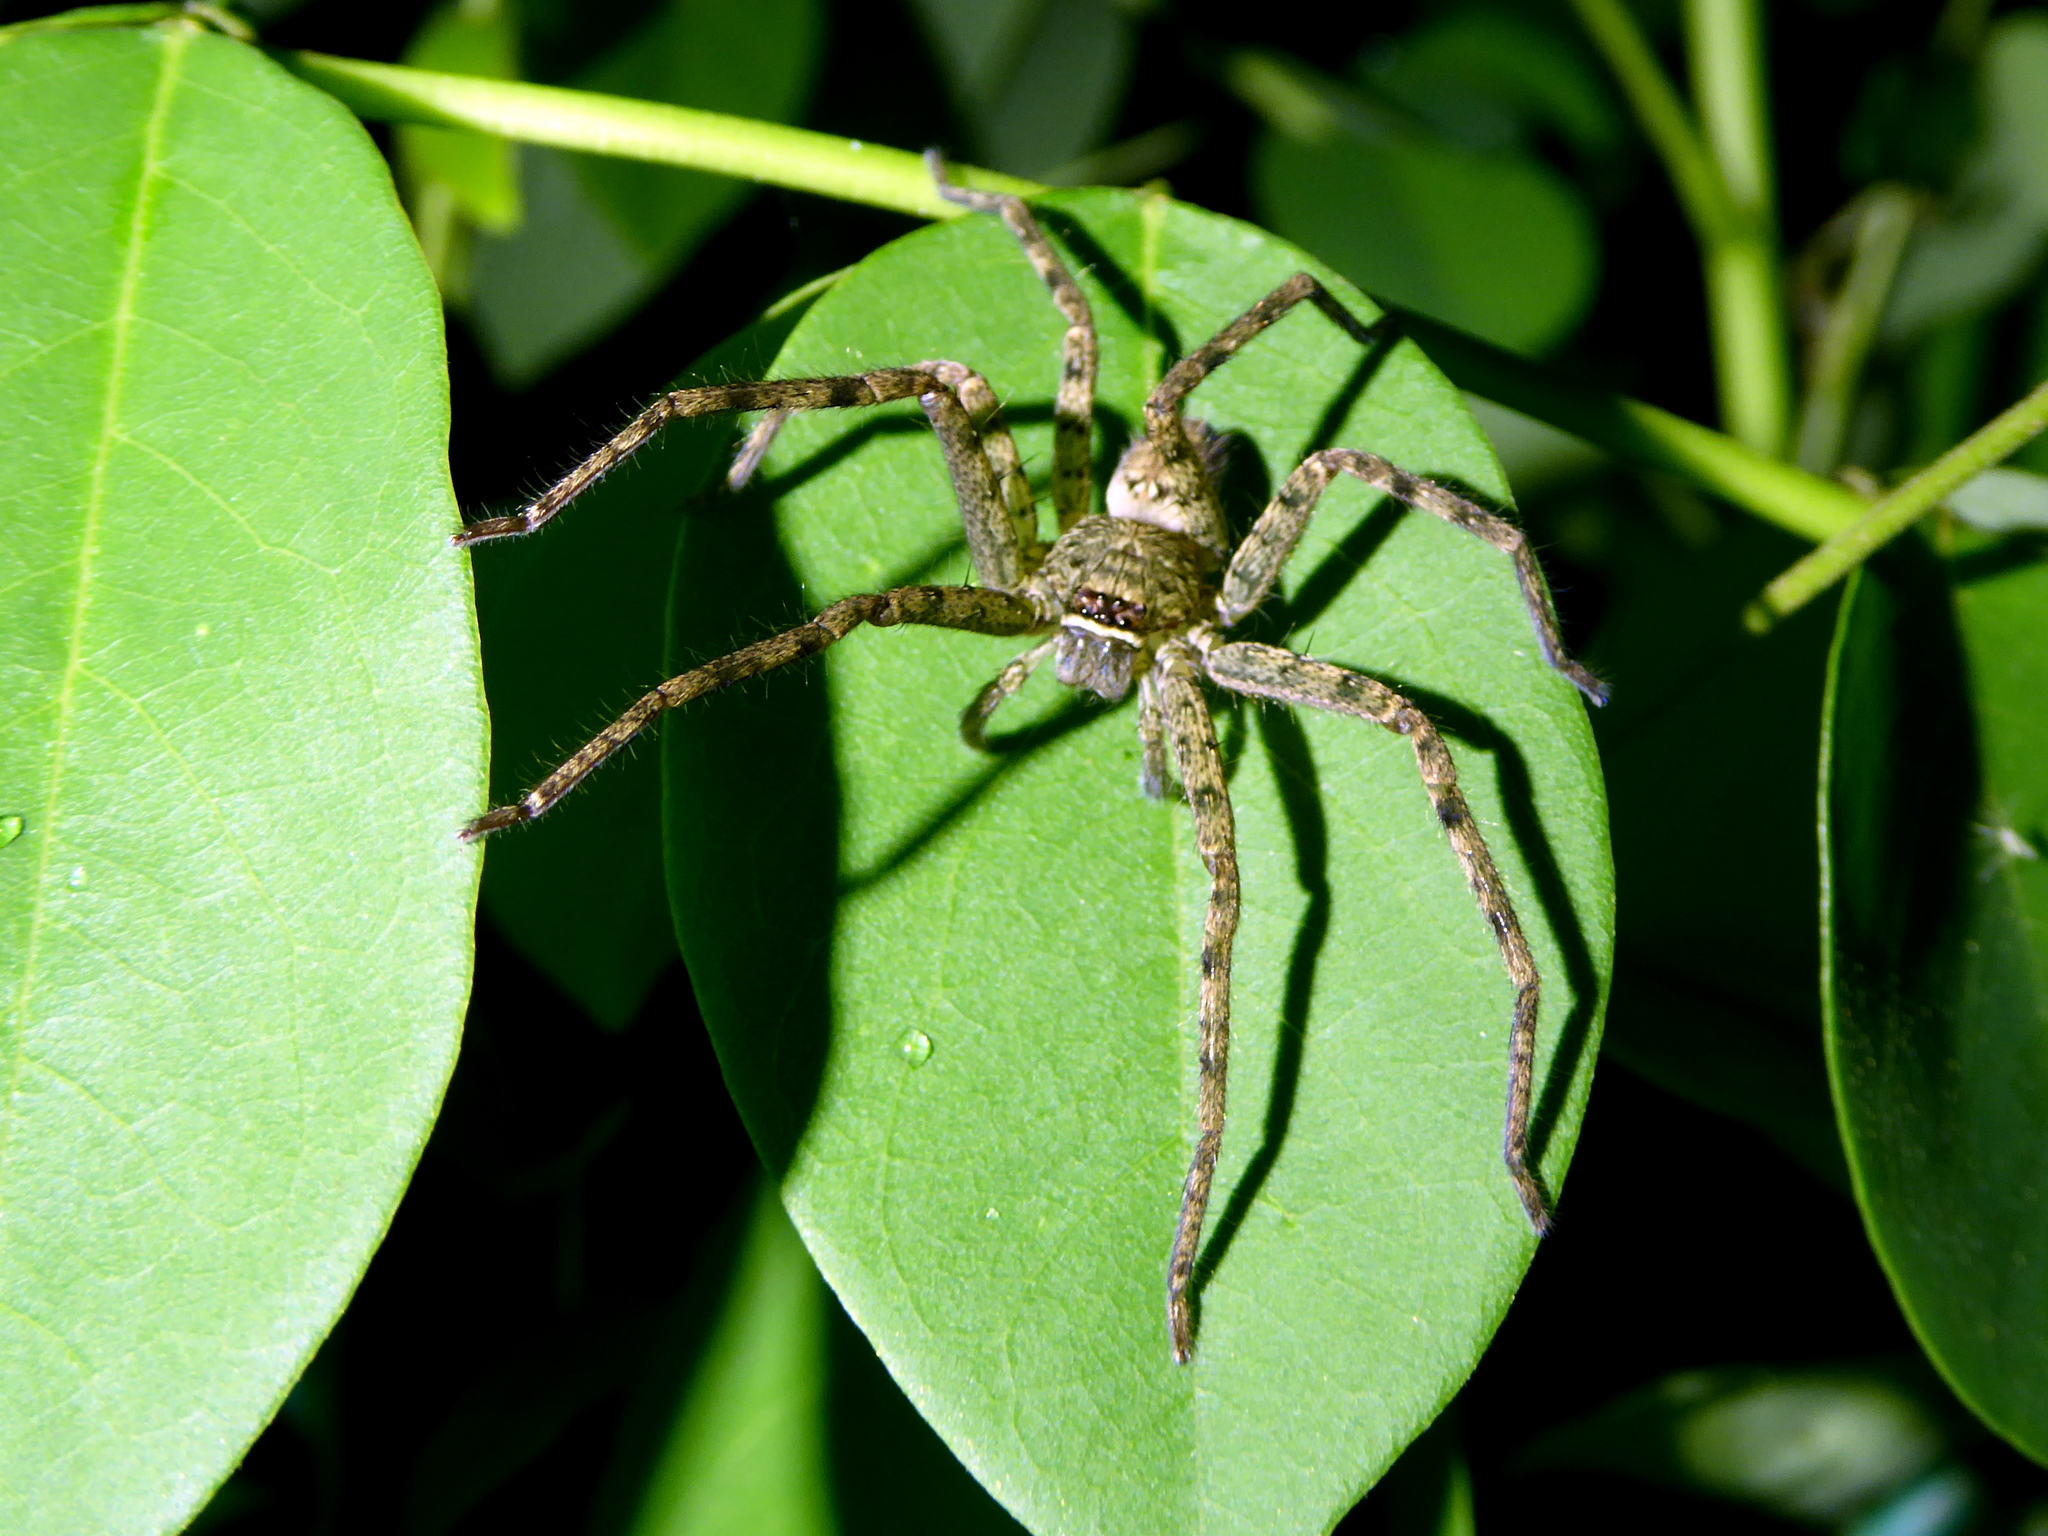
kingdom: Animalia
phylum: Arthropoda
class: Arachnida
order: Araneae
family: Sparassidae
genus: Heteropoda
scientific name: Heteropoda venatoria
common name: Huntsman spider
